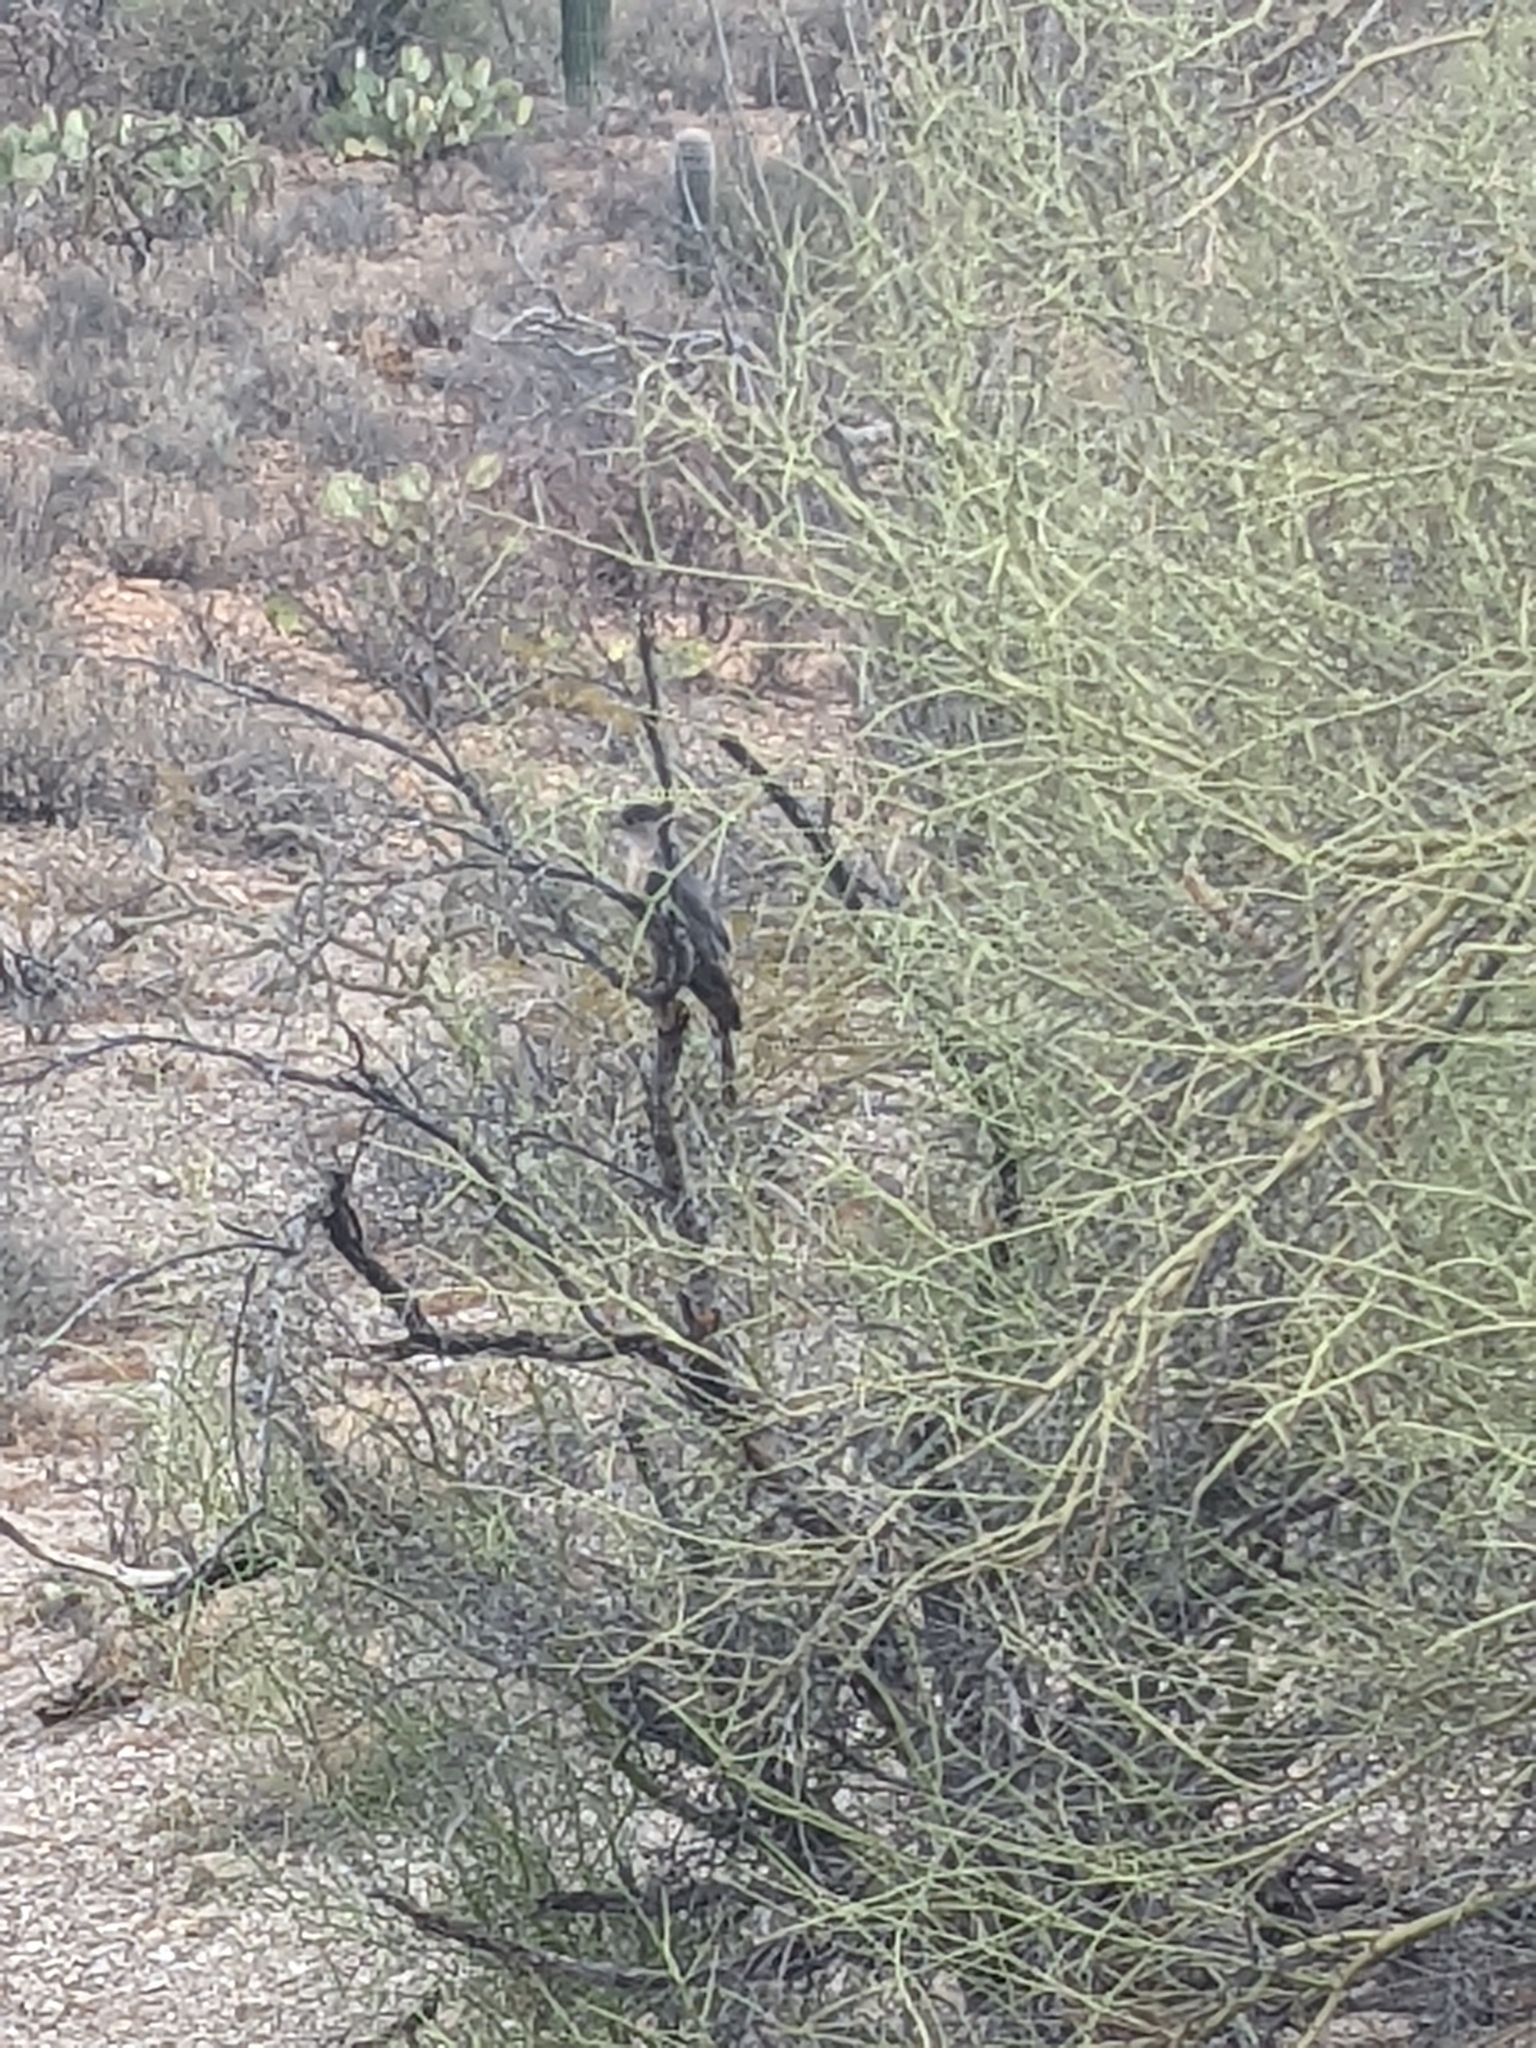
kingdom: Animalia
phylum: Chordata
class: Aves
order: Accipitriformes
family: Accipitridae
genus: Accipiter
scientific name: Accipiter cooperii
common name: Cooper's hawk
